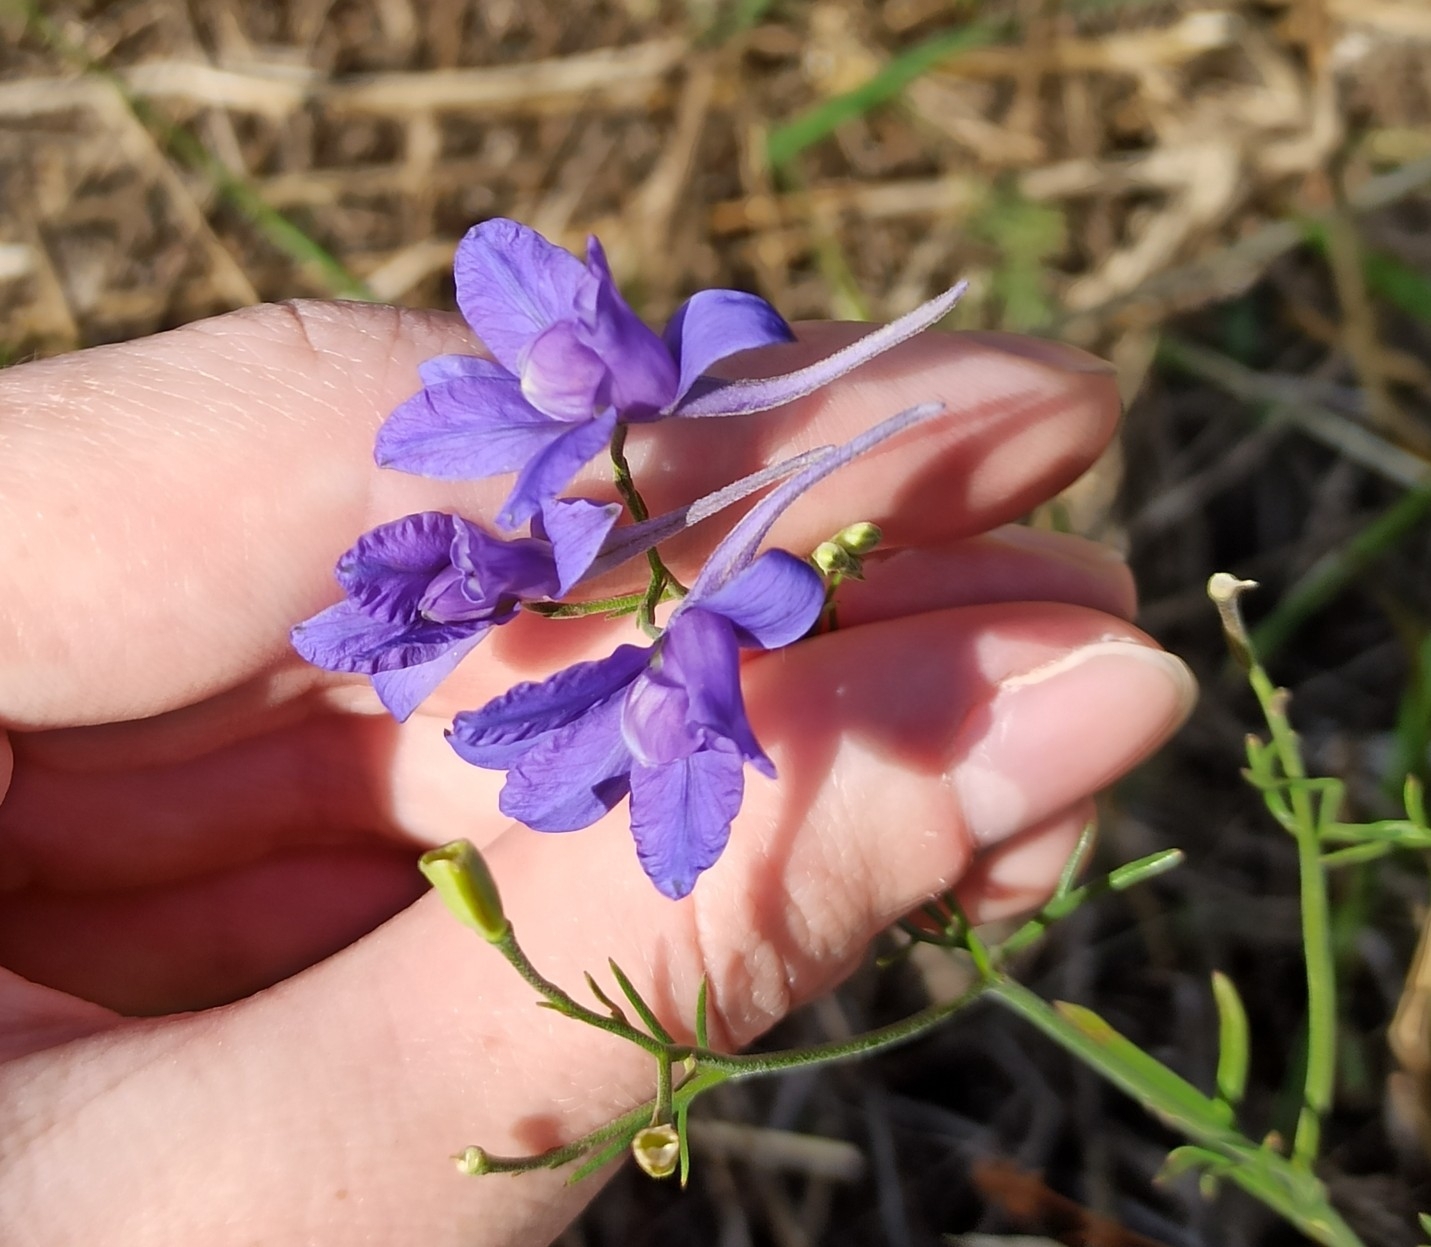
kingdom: Plantae
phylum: Tracheophyta
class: Magnoliopsida
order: Ranunculales
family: Ranunculaceae
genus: Delphinium
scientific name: Delphinium consolida
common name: Branching larkspur
